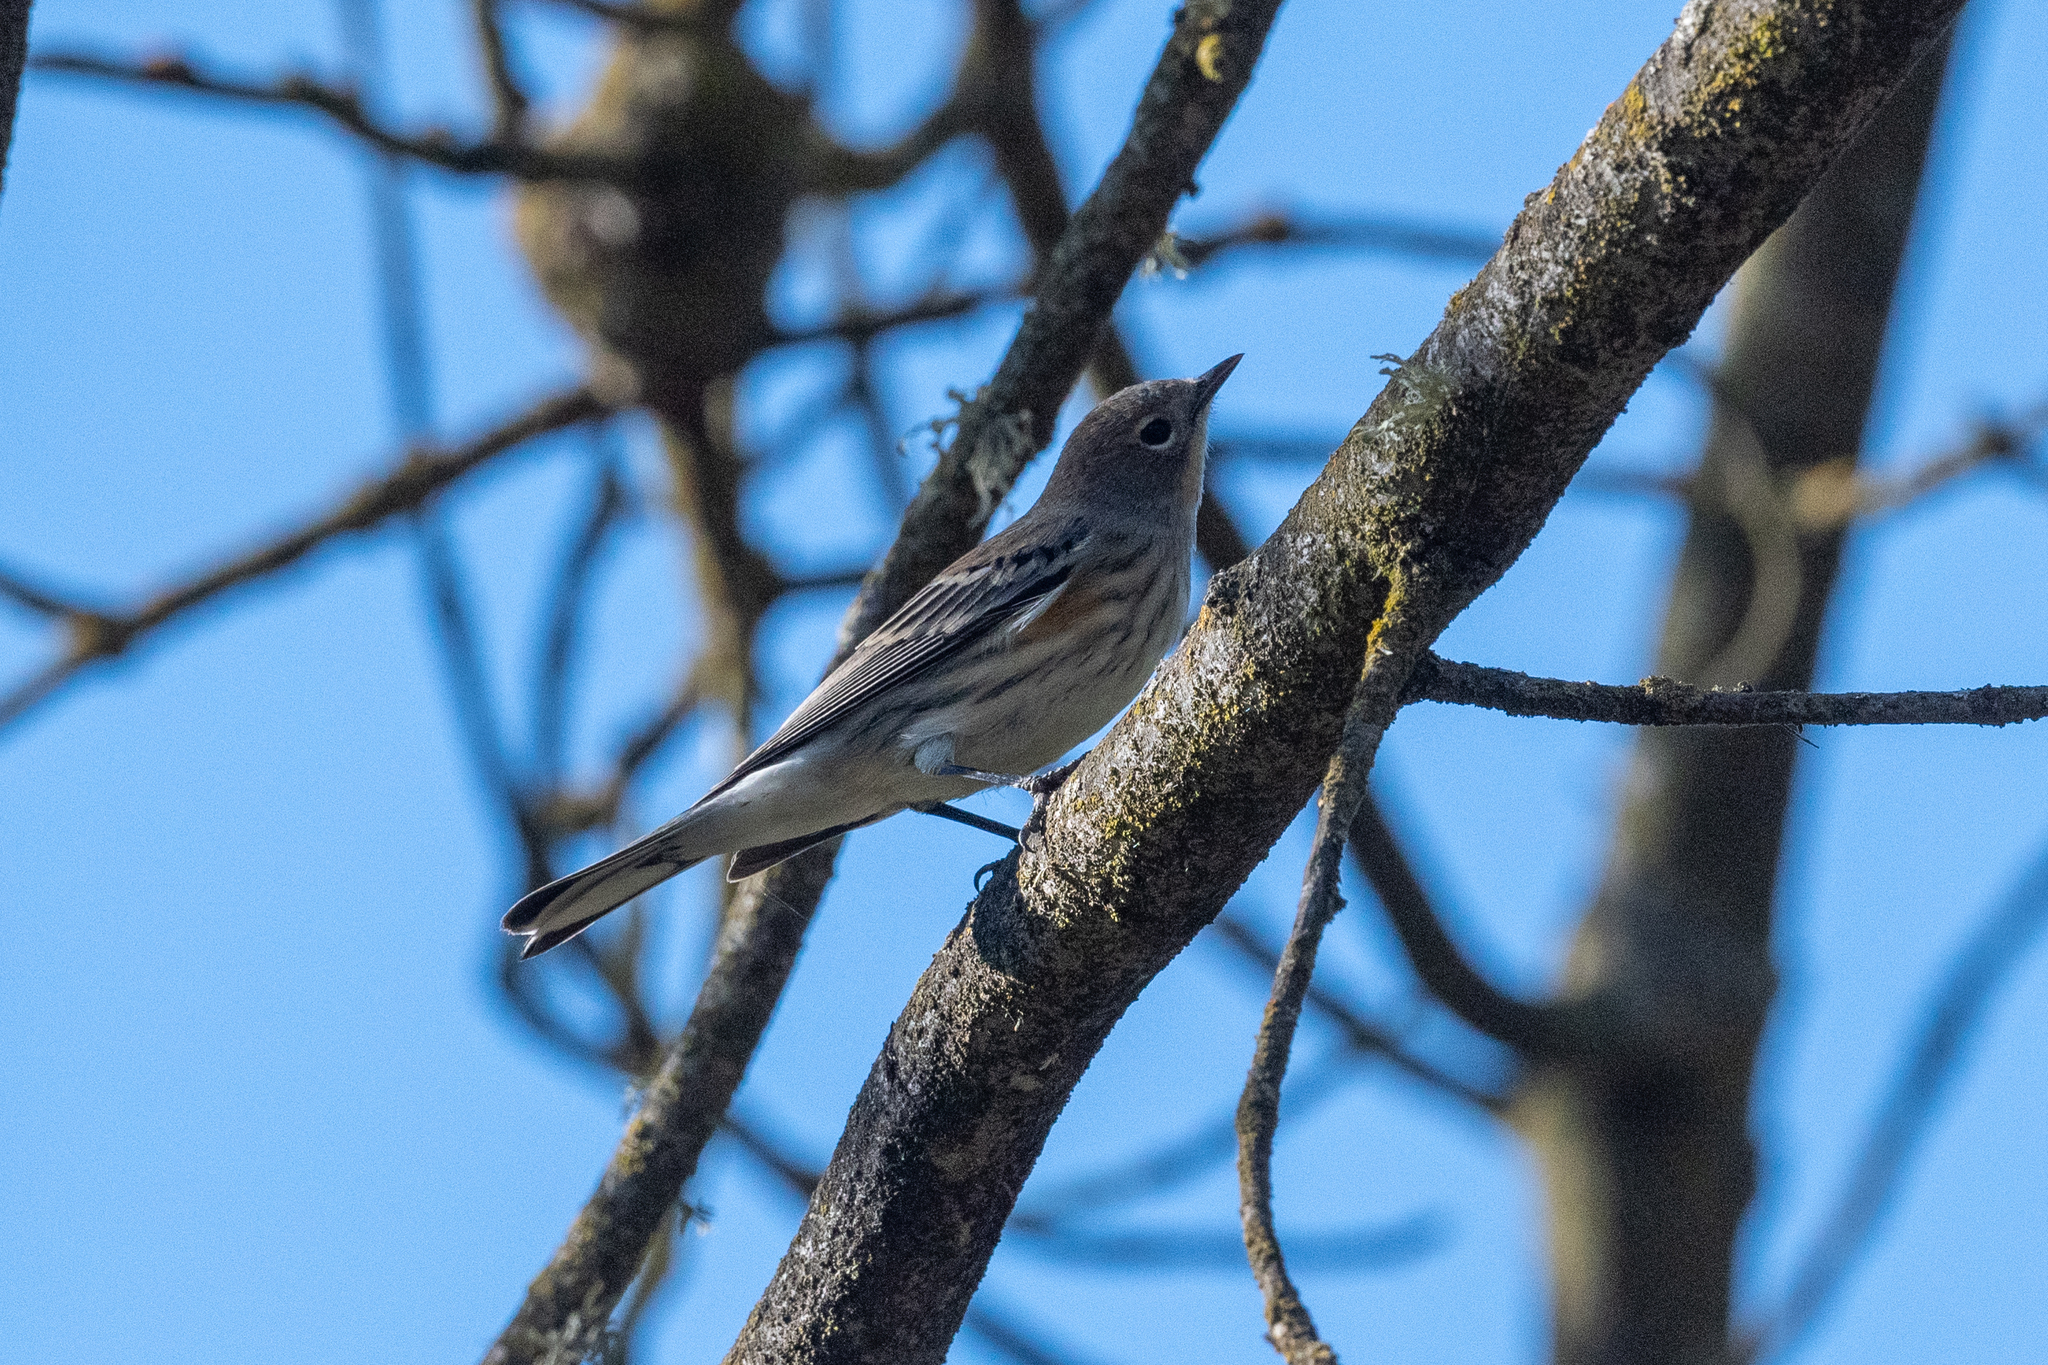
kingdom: Animalia
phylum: Chordata
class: Aves
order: Passeriformes
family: Parulidae
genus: Setophaga
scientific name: Setophaga coronata
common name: Myrtle warbler
